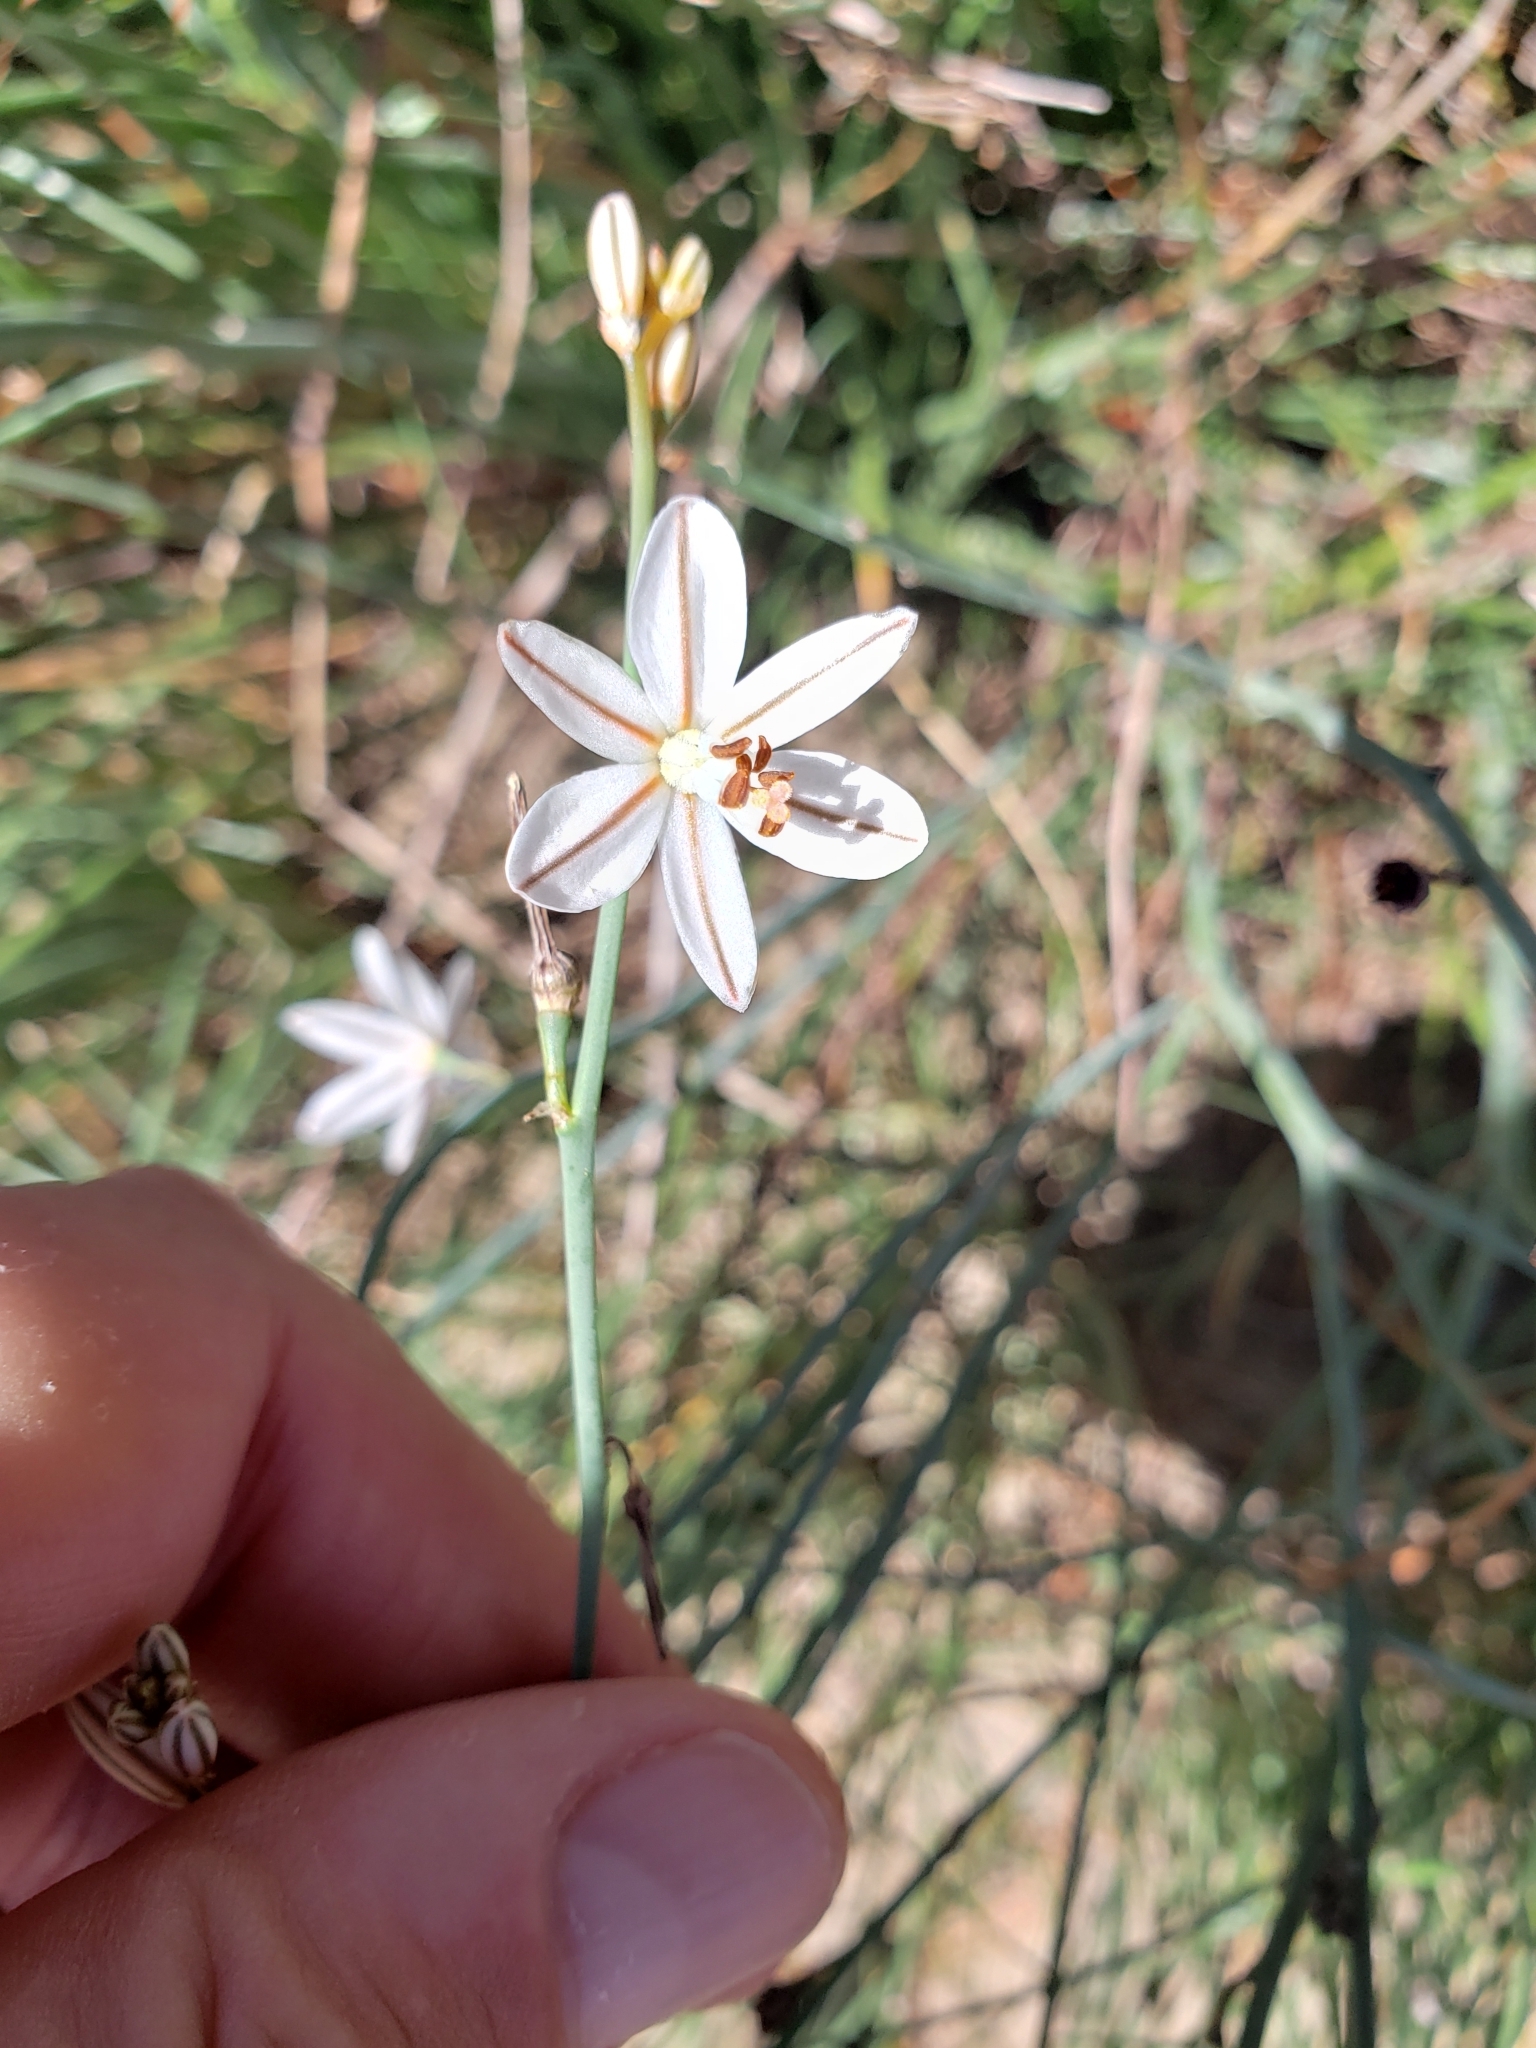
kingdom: Plantae
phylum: Tracheophyta
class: Liliopsida
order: Asparagales
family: Asphodelaceae
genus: Asphodelus
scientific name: Asphodelus fistulosus
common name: Onionweed
